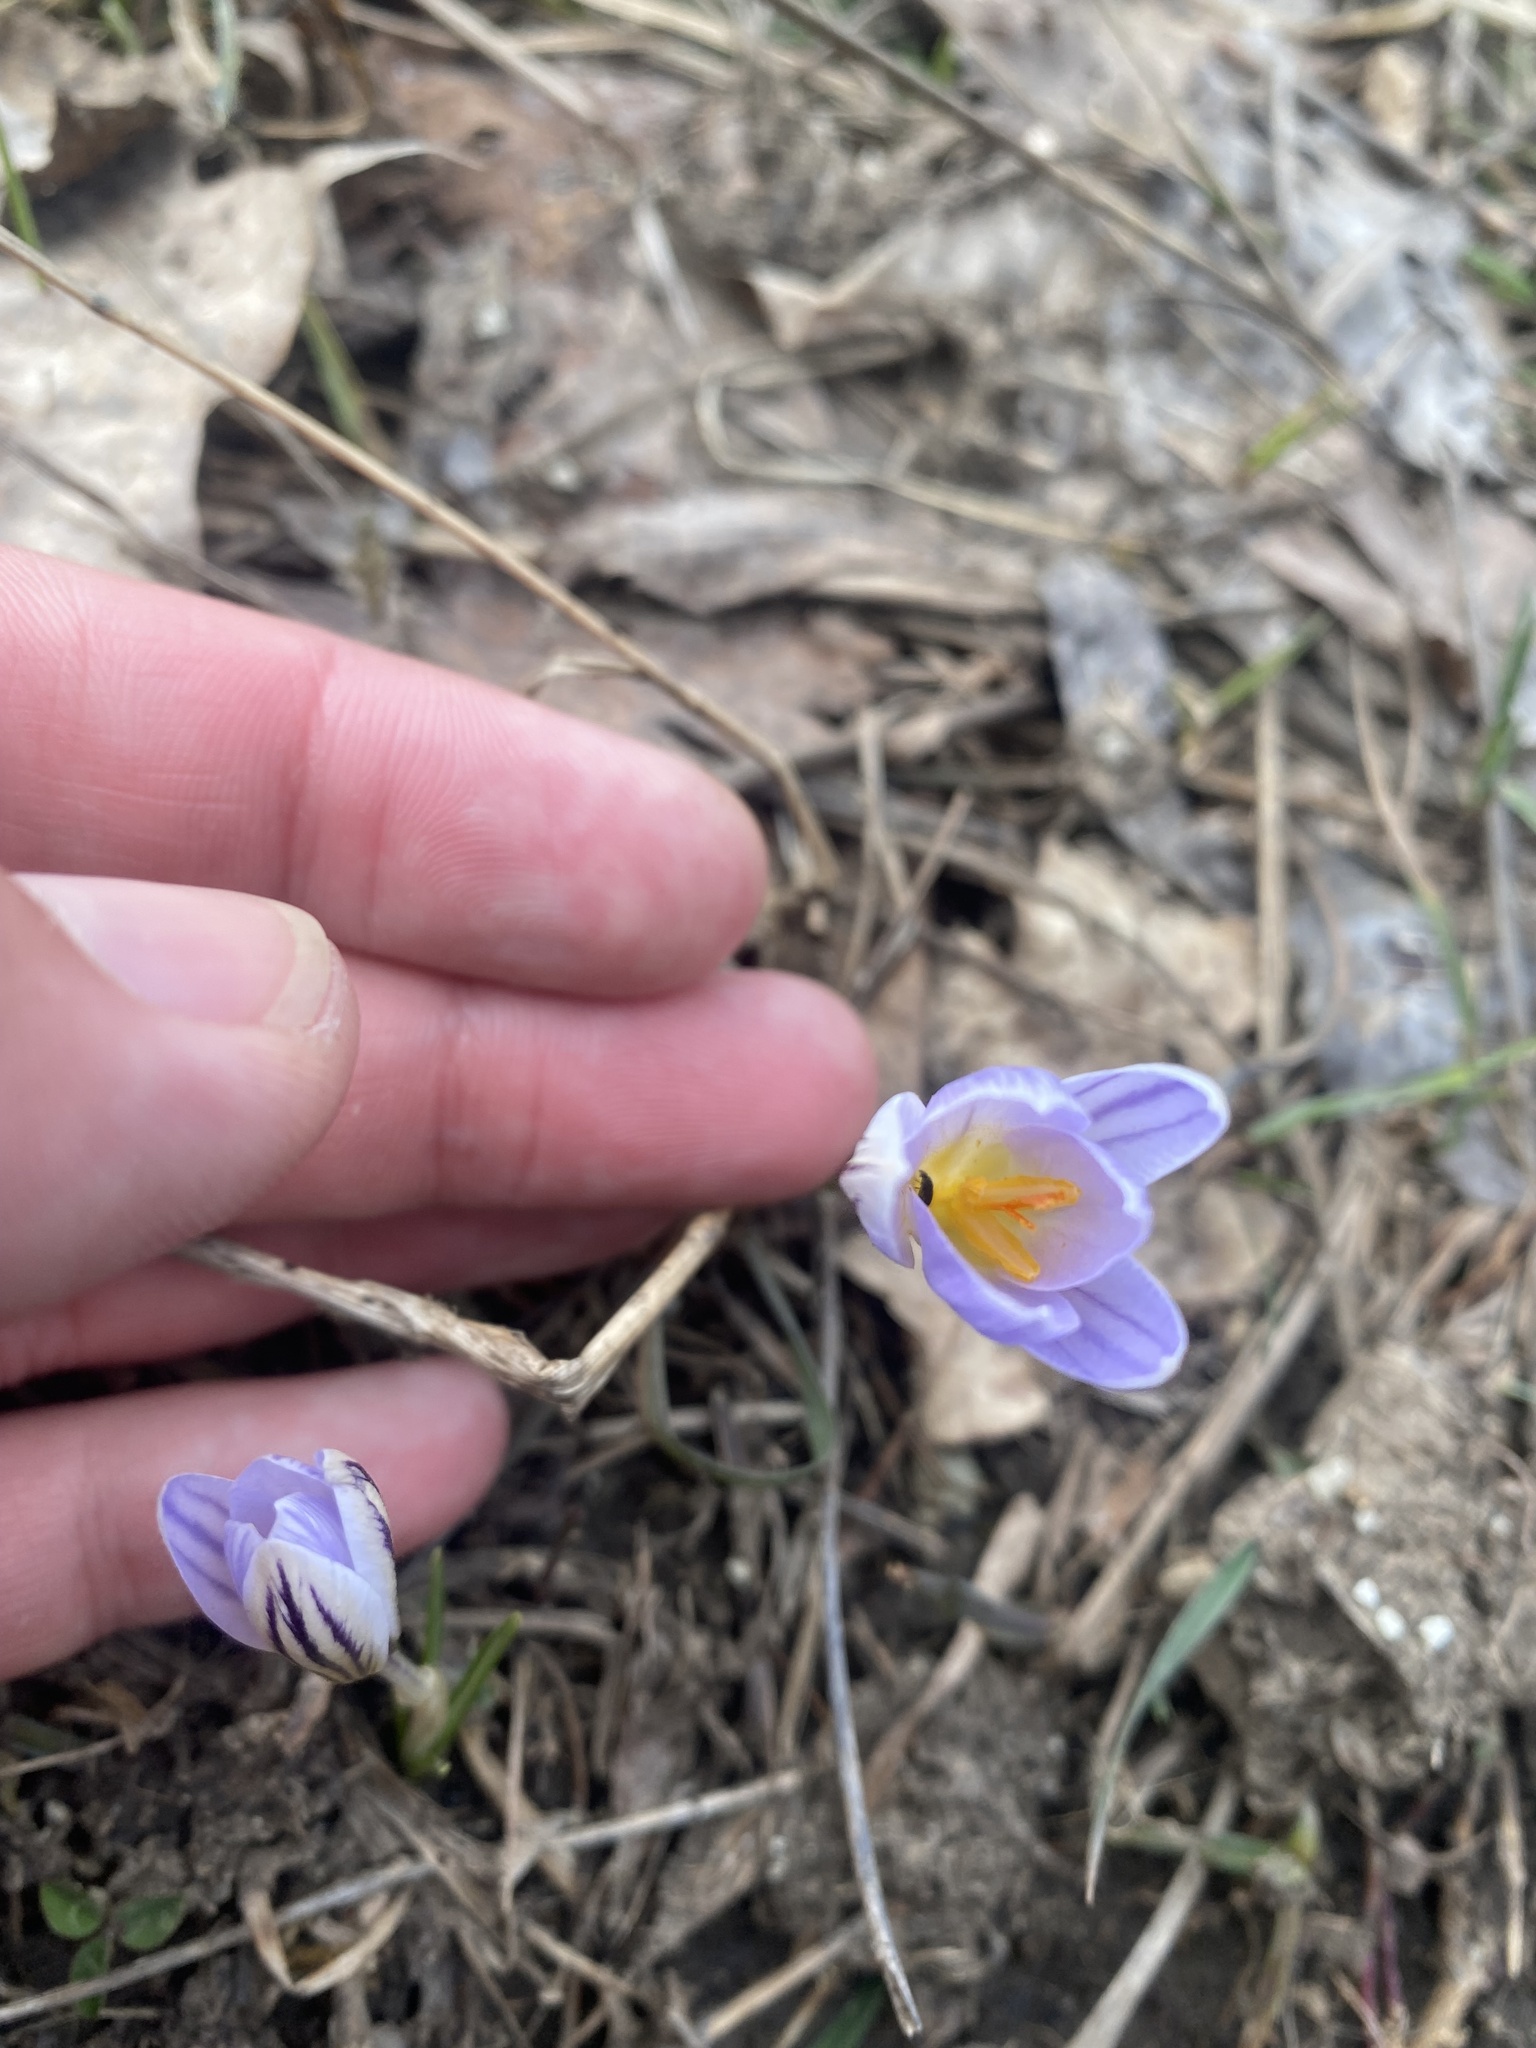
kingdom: Plantae
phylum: Tracheophyta
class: Liliopsida
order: Asparagales
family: Iridaceae
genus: Crocus
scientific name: Crocus reticulatus
